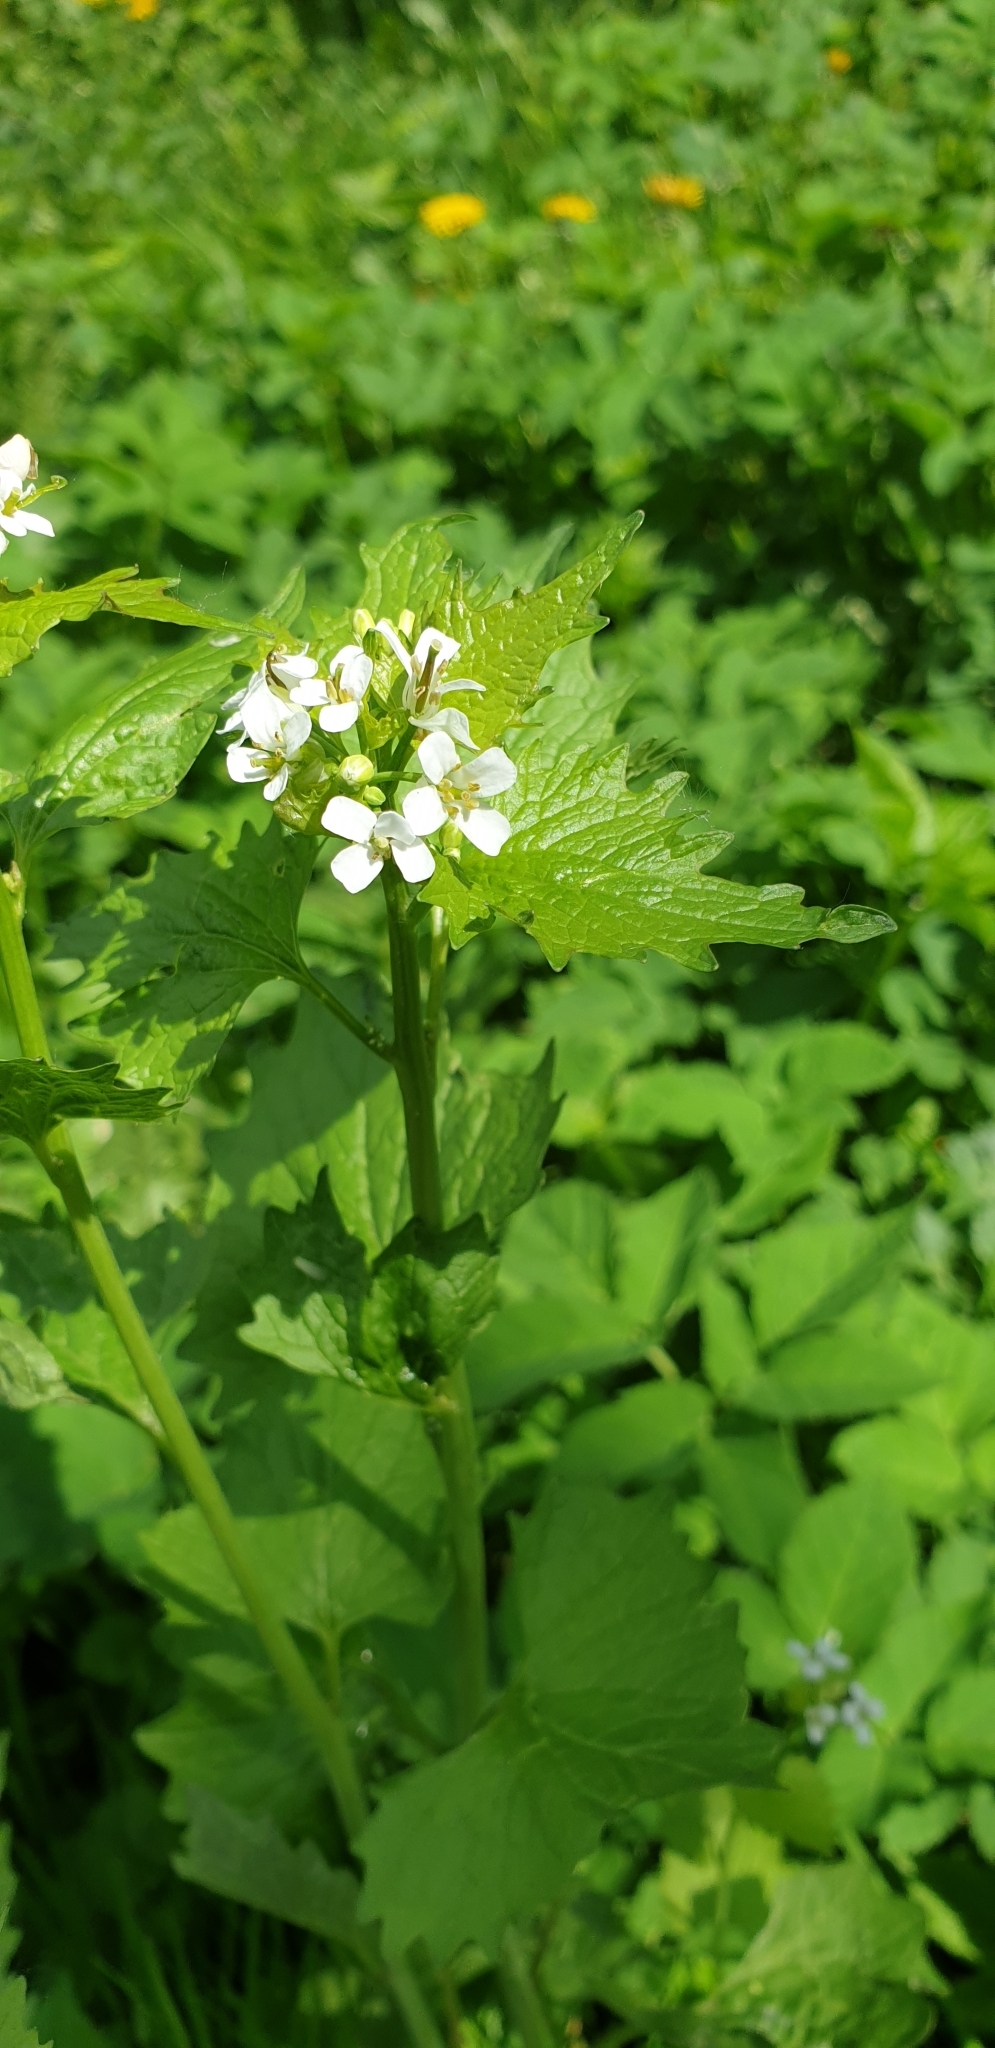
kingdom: Plantae
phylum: Tracheophyta
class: Magnoliopsida
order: Brassicales
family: Brassicaceae
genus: Alliaria
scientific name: Alliaria petiolata
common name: Garlic mustard
